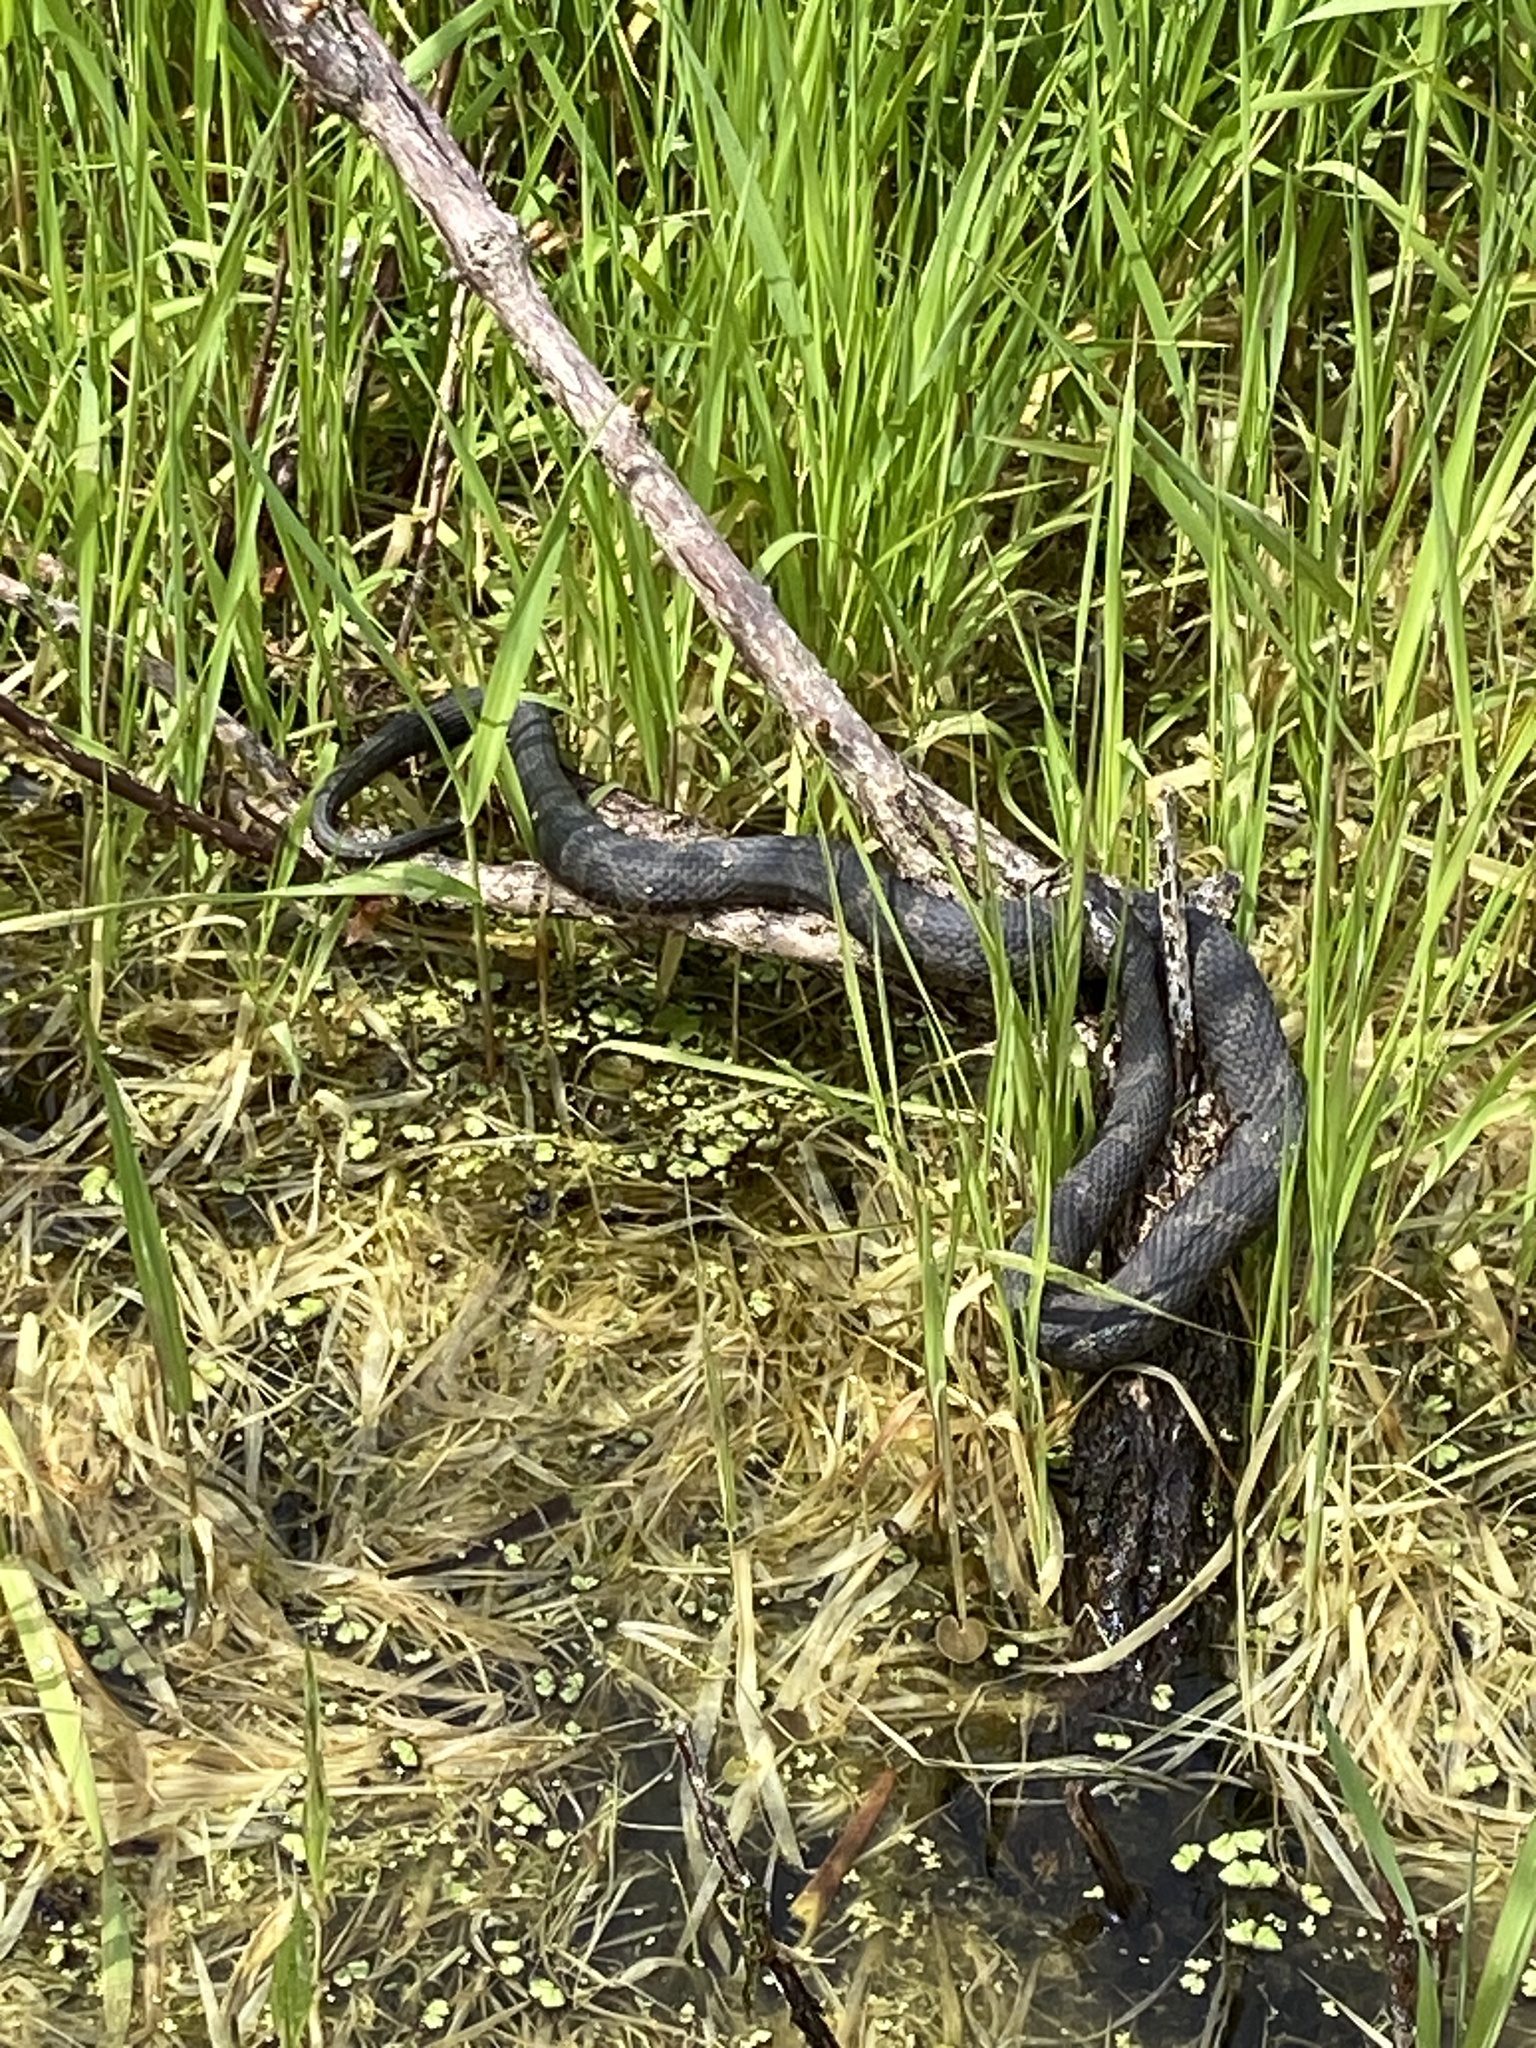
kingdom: Animalia
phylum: Chordata
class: Squamata
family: Colubridae
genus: Nerodia
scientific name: Nerodia sipedon
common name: Northern water snake
